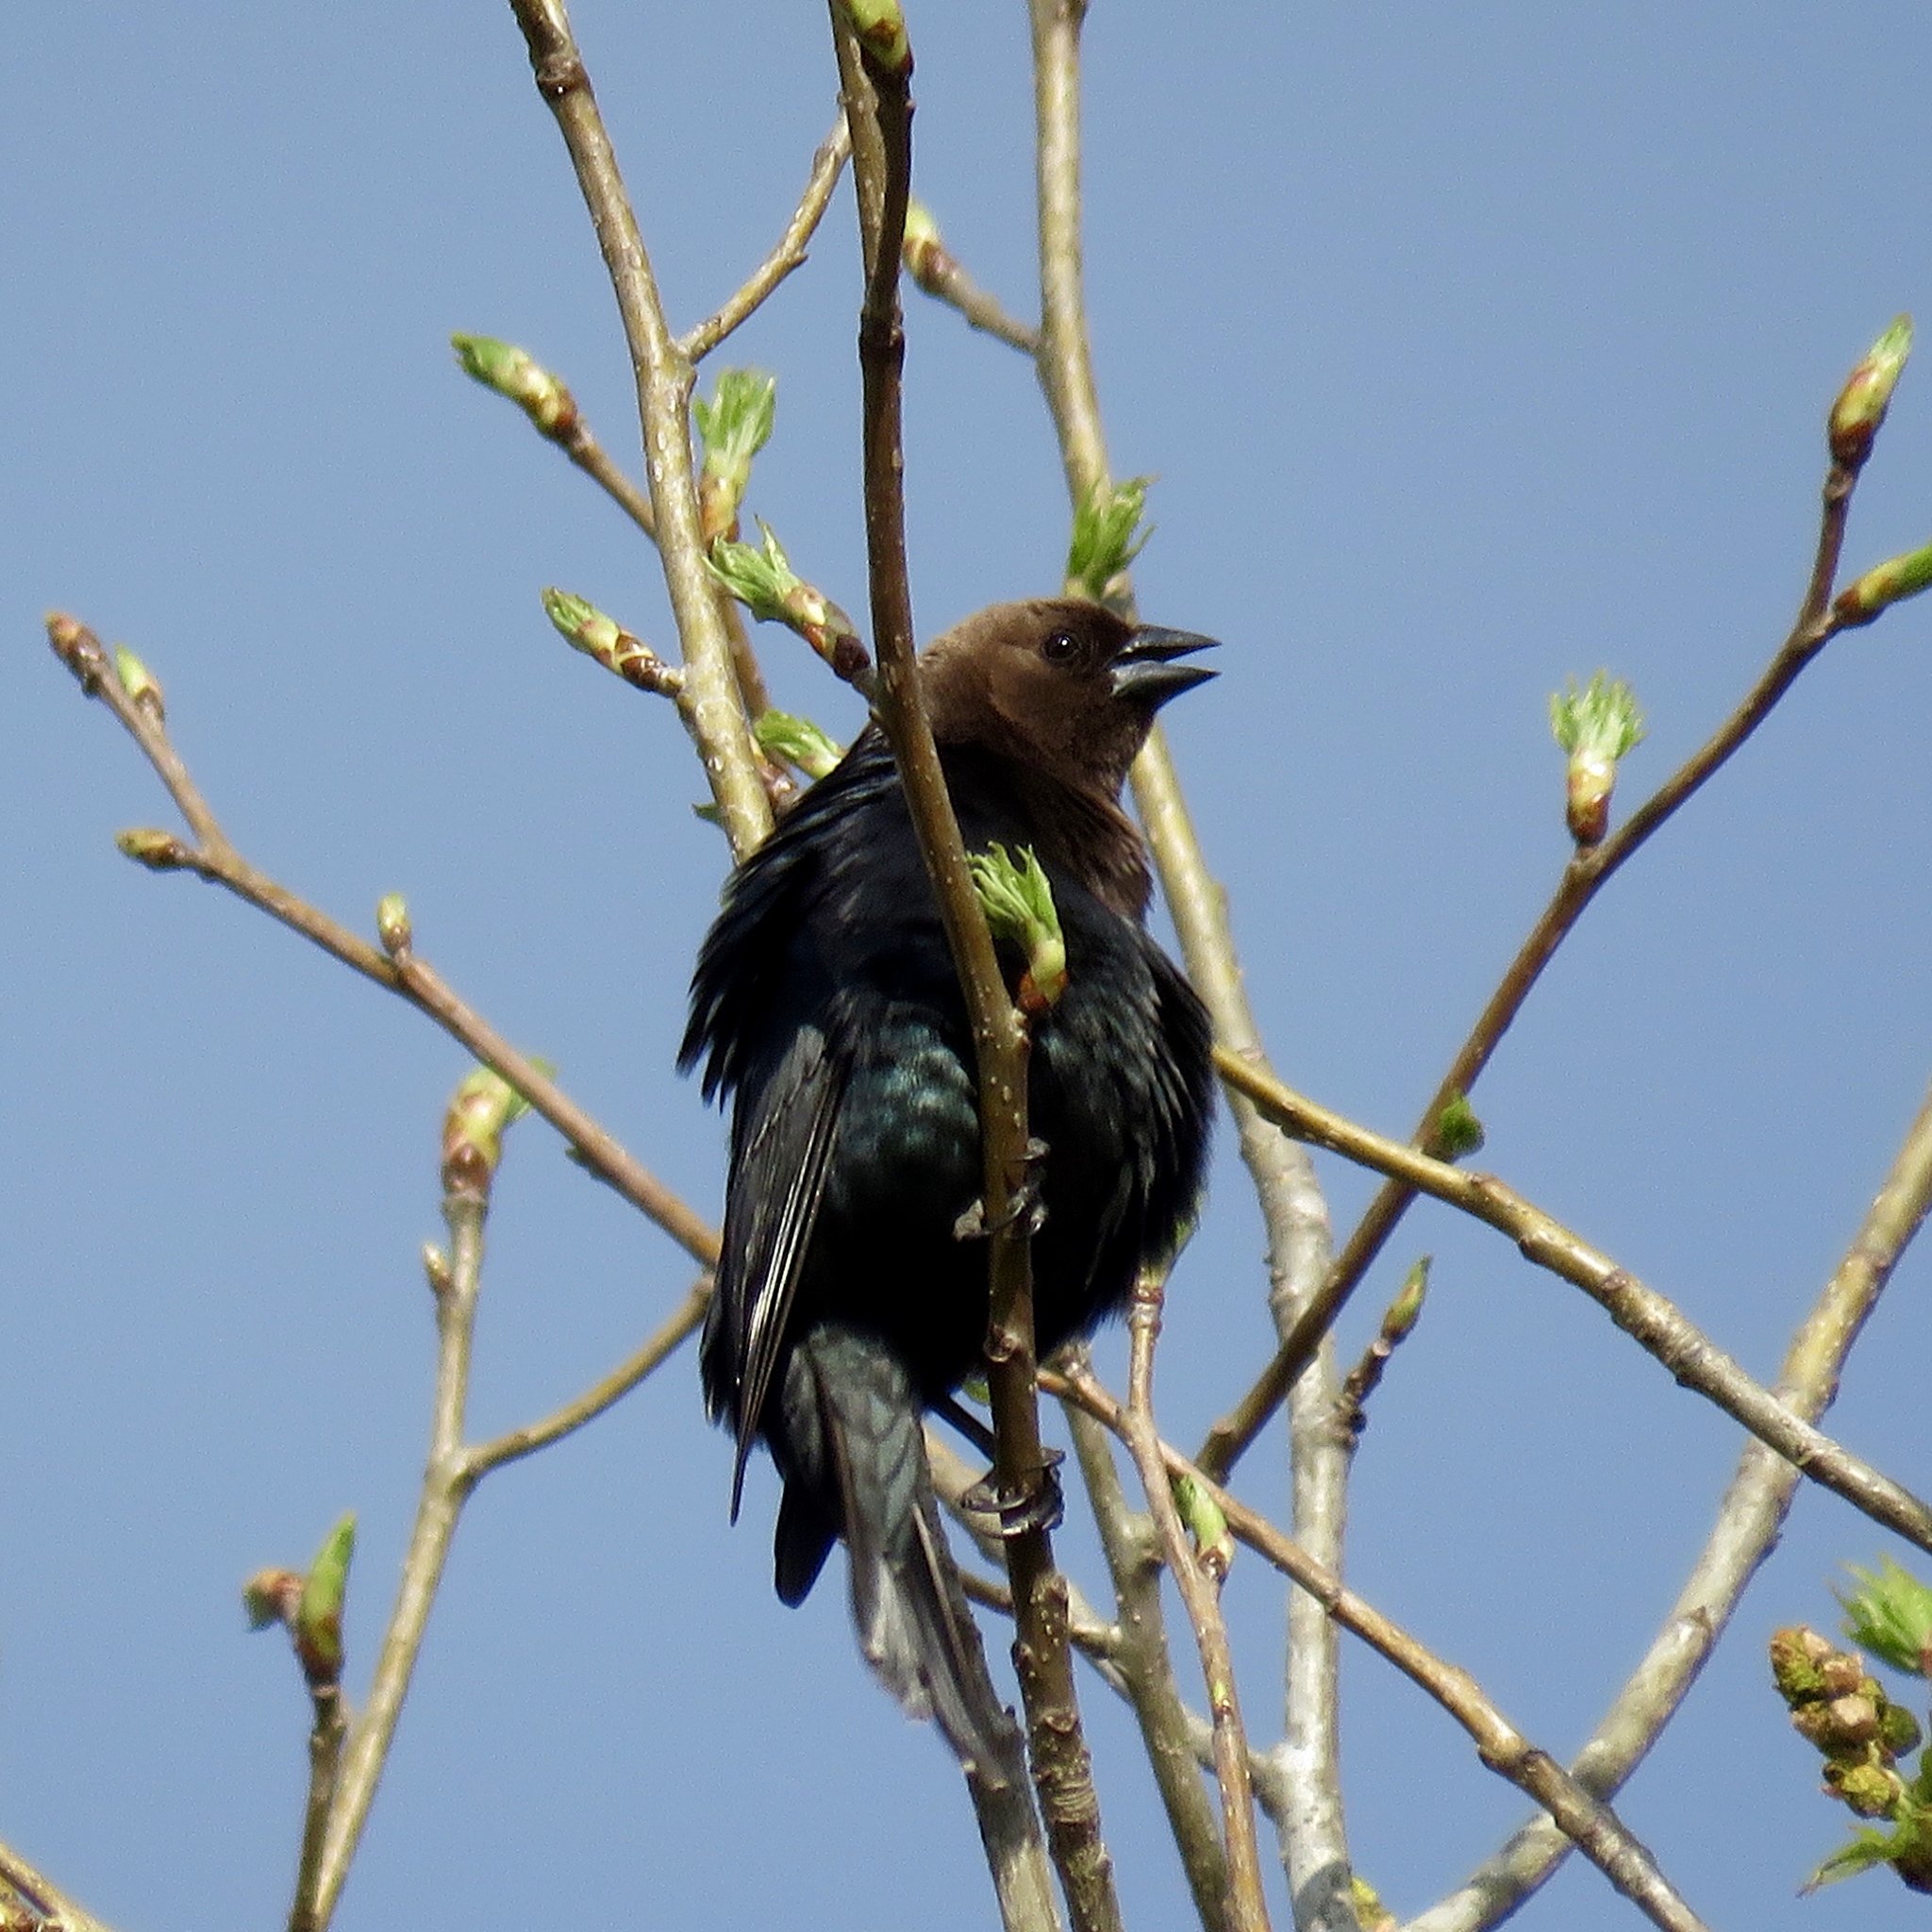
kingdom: Animalia
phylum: Chordata
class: Aves
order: Passeriformes
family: Icteridae
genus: Molothrus
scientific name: Molothrus ater
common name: Brown-headed cowbird
